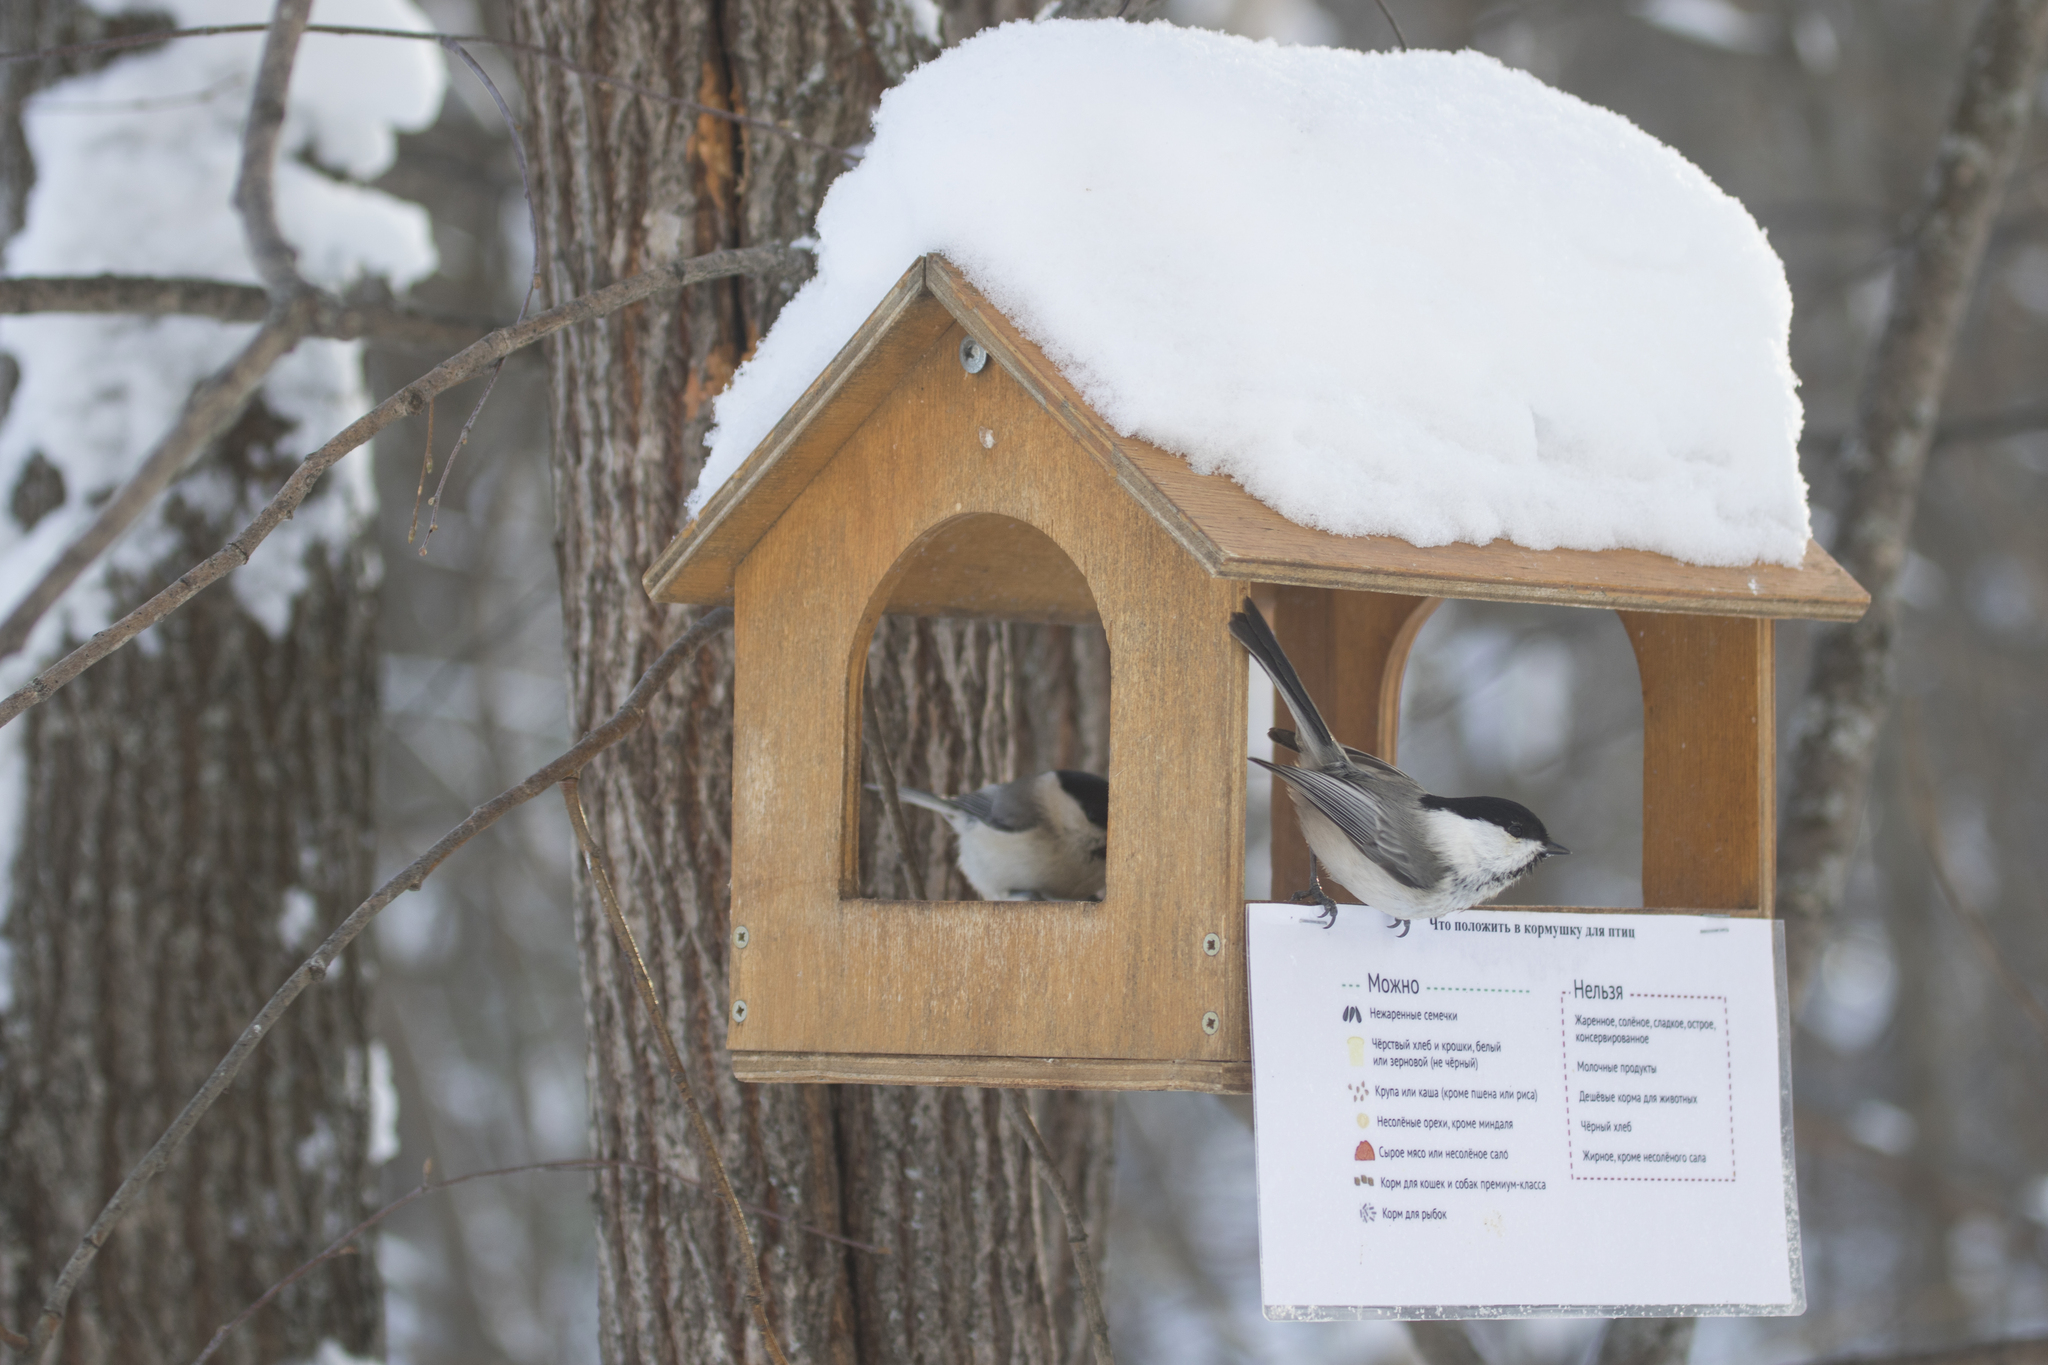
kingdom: Animalia
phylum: Chordata
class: Aves
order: Passeriformes
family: Paridae
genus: Poecile
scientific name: Poecile montanus
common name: Willow tit
